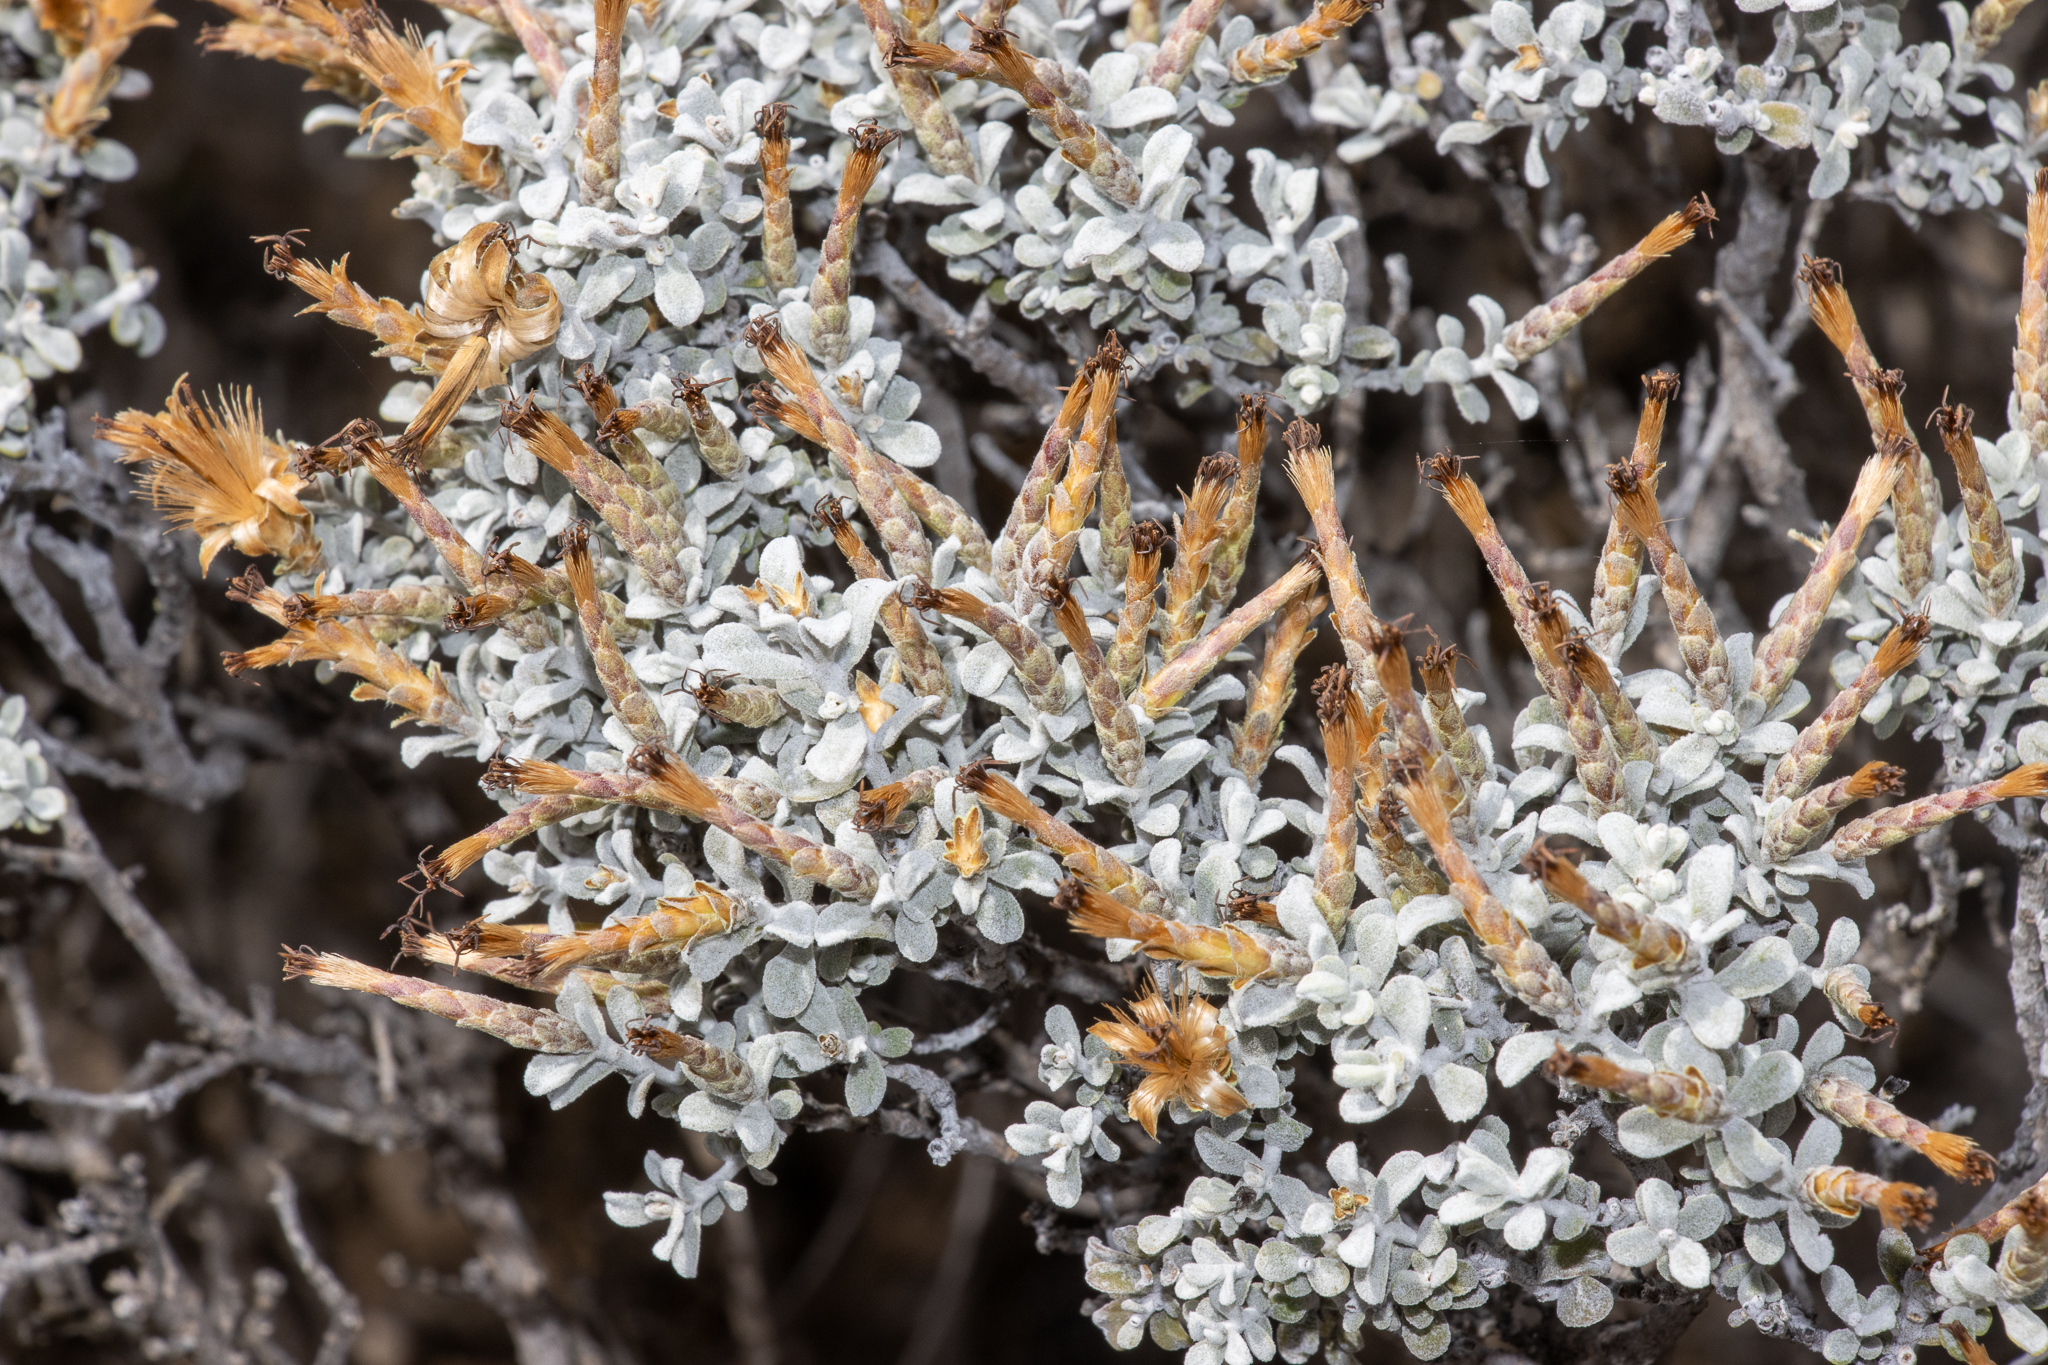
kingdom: Plantae
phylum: Tracheophyta
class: Magnoliopsida
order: Asterales
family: Asteraceae
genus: Cratystylis
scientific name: Cratystylis conocephala
